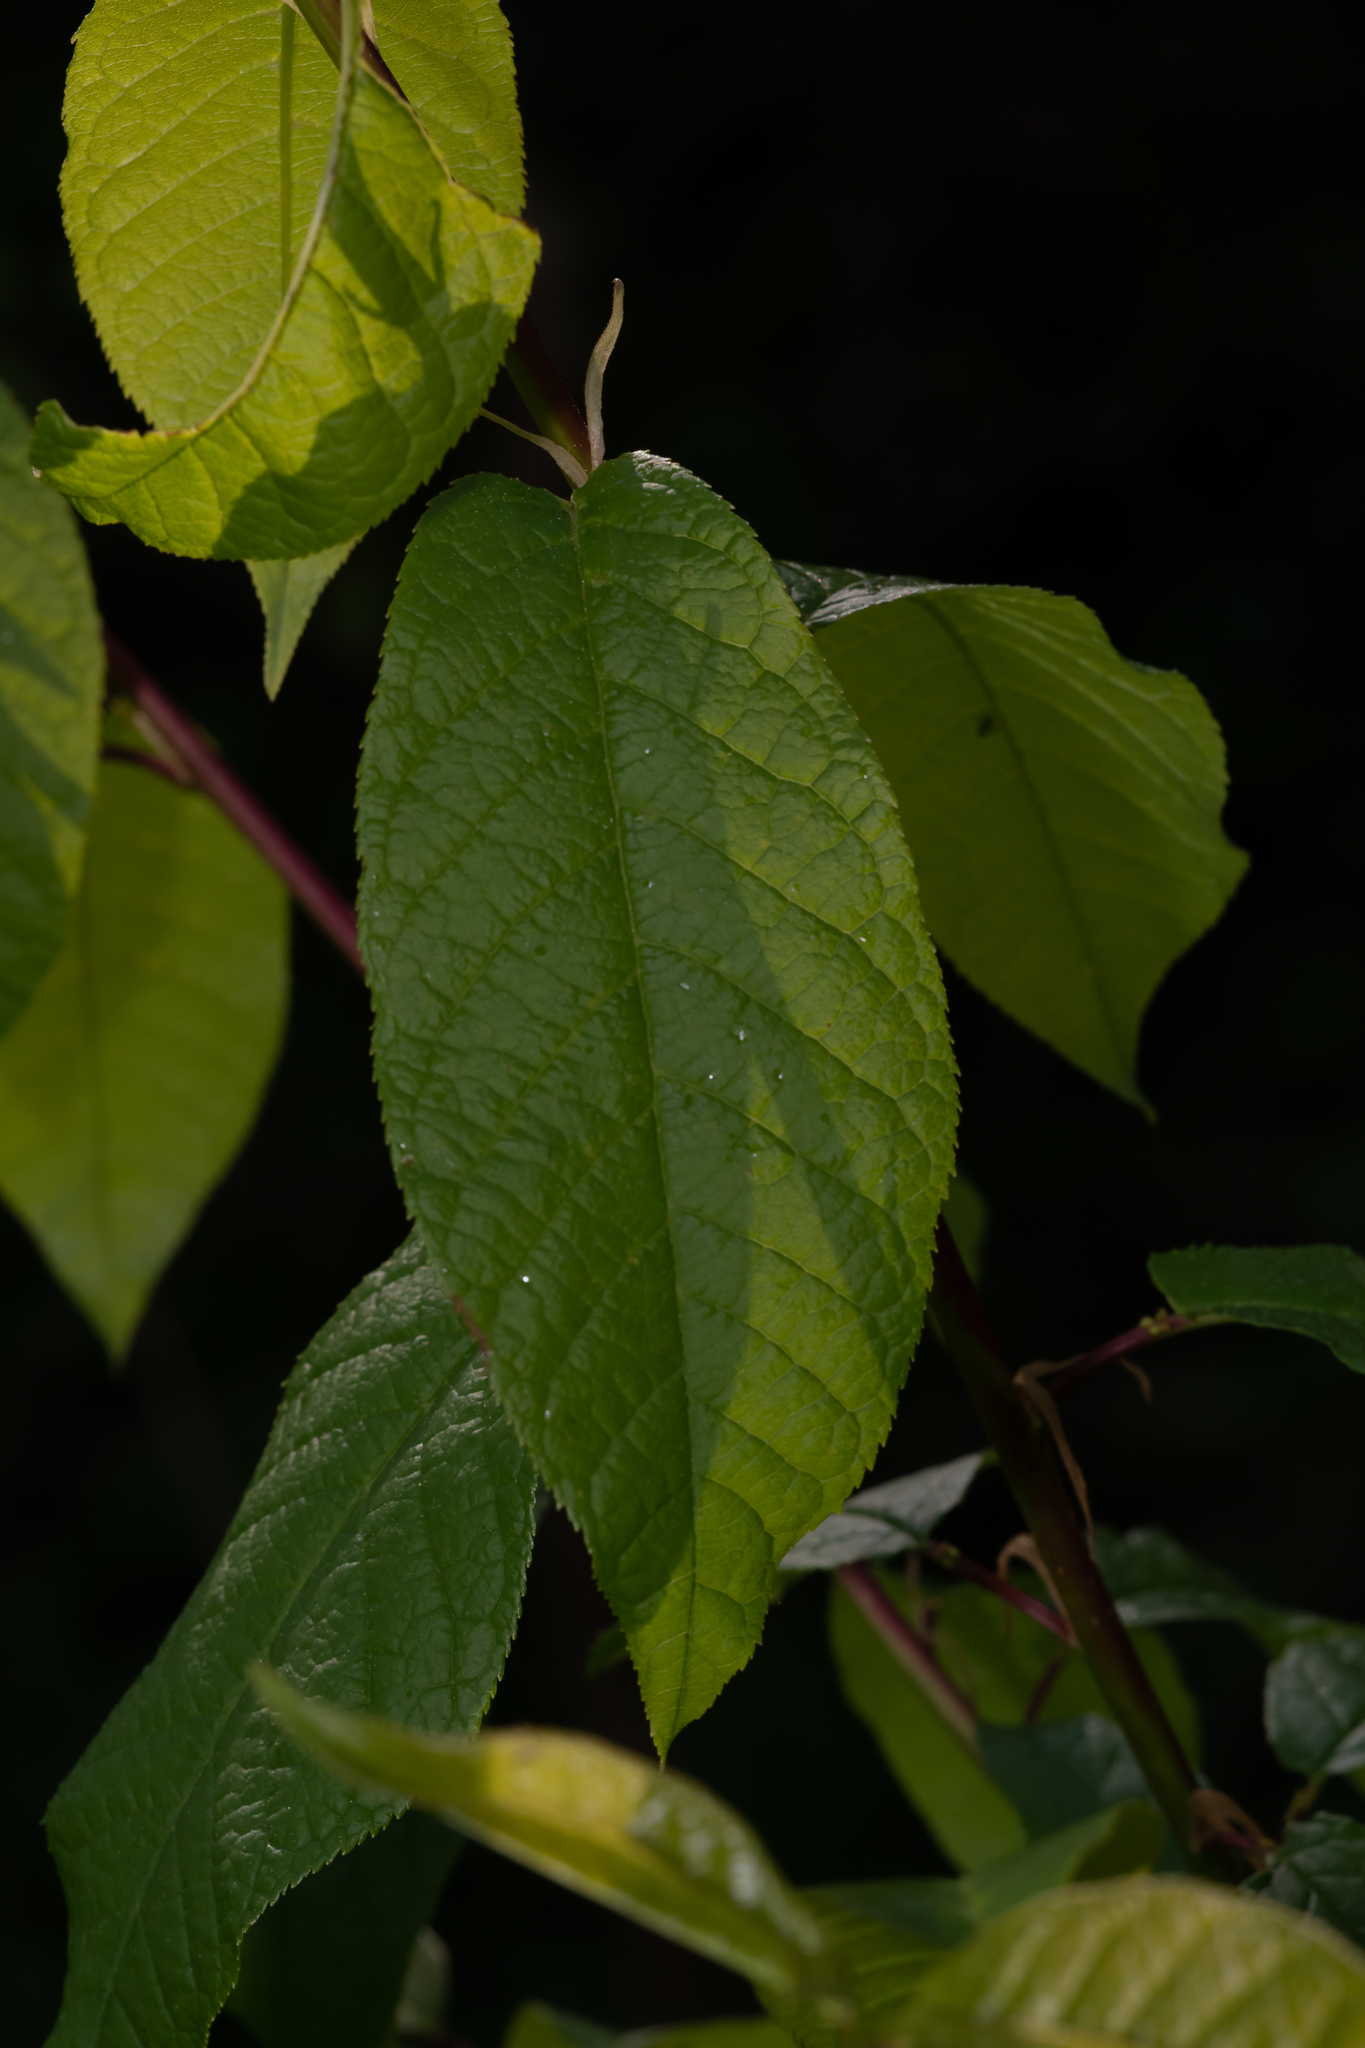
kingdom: Plantae
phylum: Tracheophyta
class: Magnoliopsida
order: Rosales
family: Rosaceae
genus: Prunus
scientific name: Prunus padus
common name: Bird cherry
